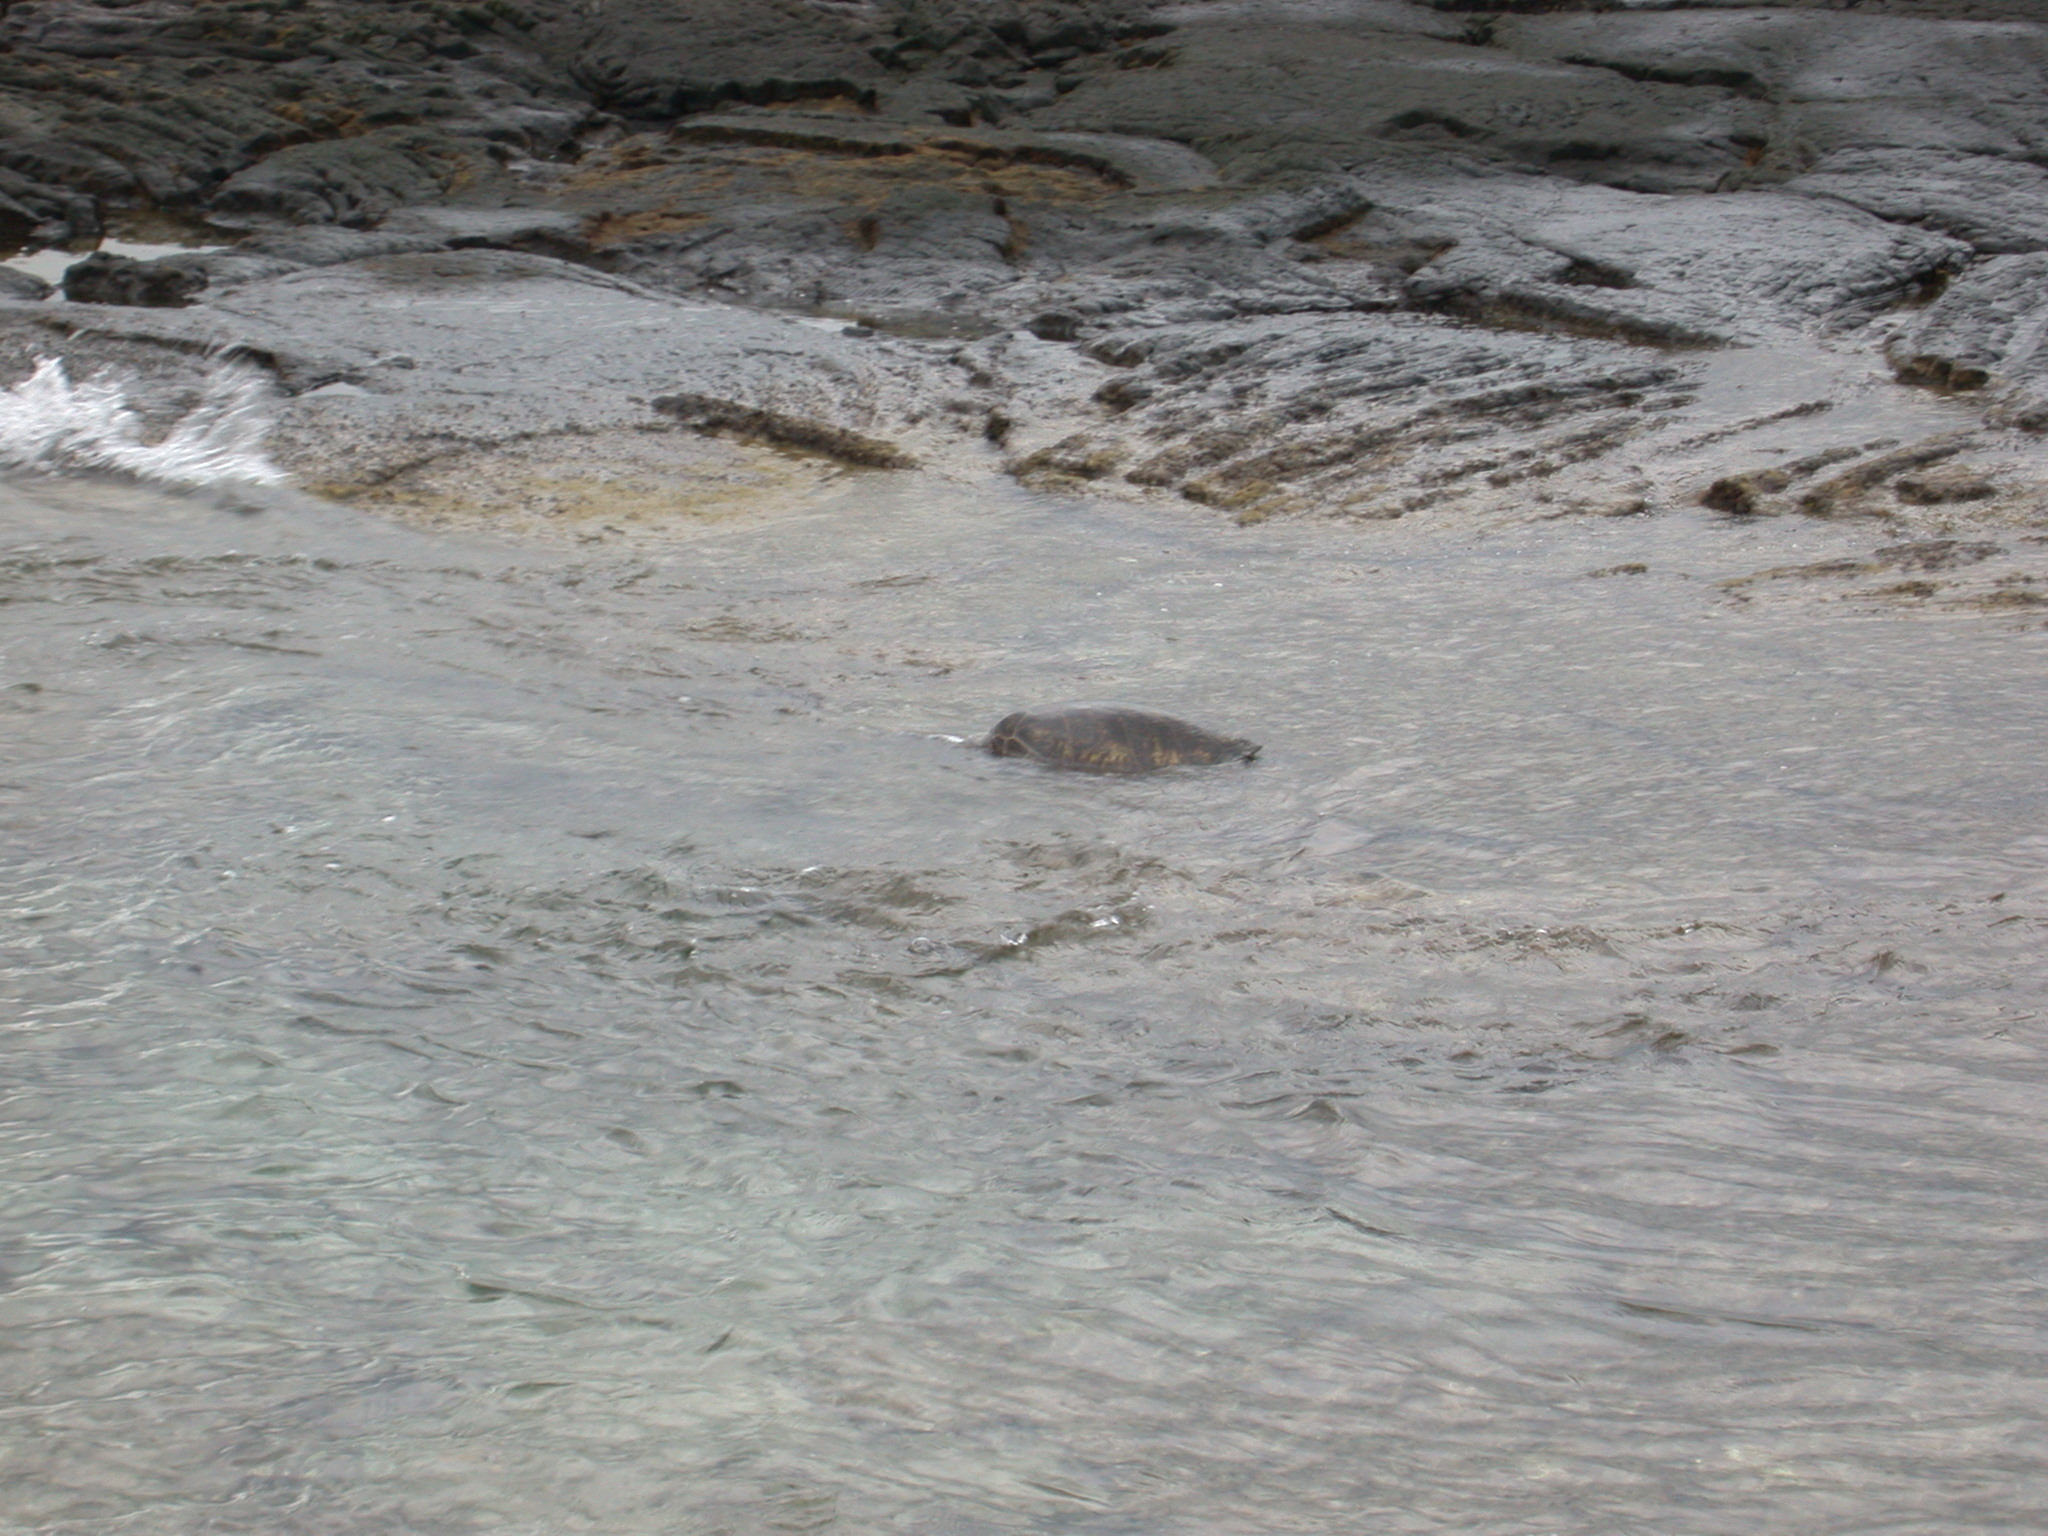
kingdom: Animalia
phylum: Chordata
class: Testudines
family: Cheloniidae
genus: Chelonia
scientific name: Chelonia mydas
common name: Green turtle
